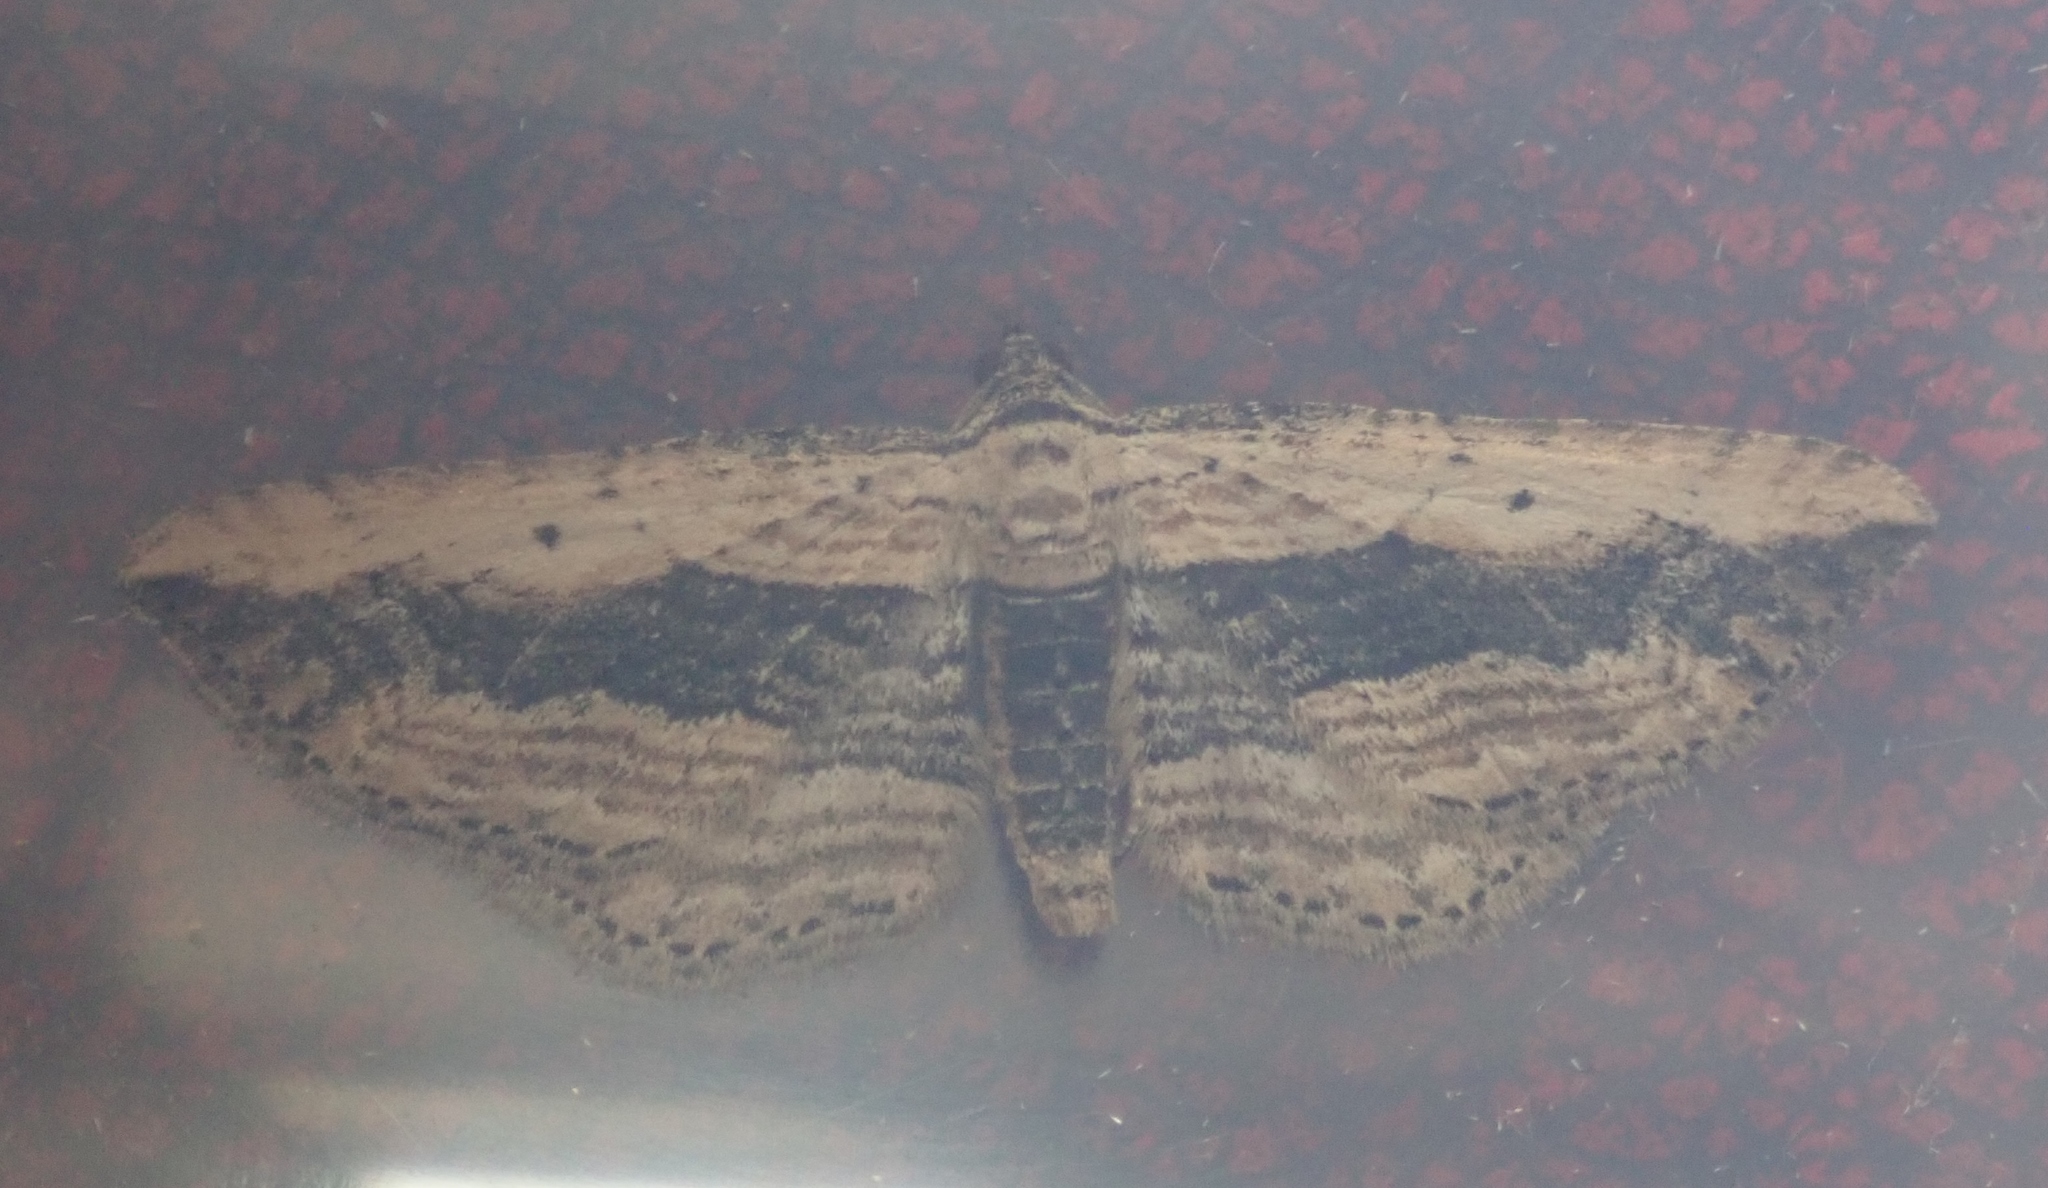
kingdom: Animalia
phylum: Arthropoda
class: Insecta
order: Lepidoptera
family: Geometridae
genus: Horisme
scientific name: Horisme vitalbata
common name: Small waved umber
